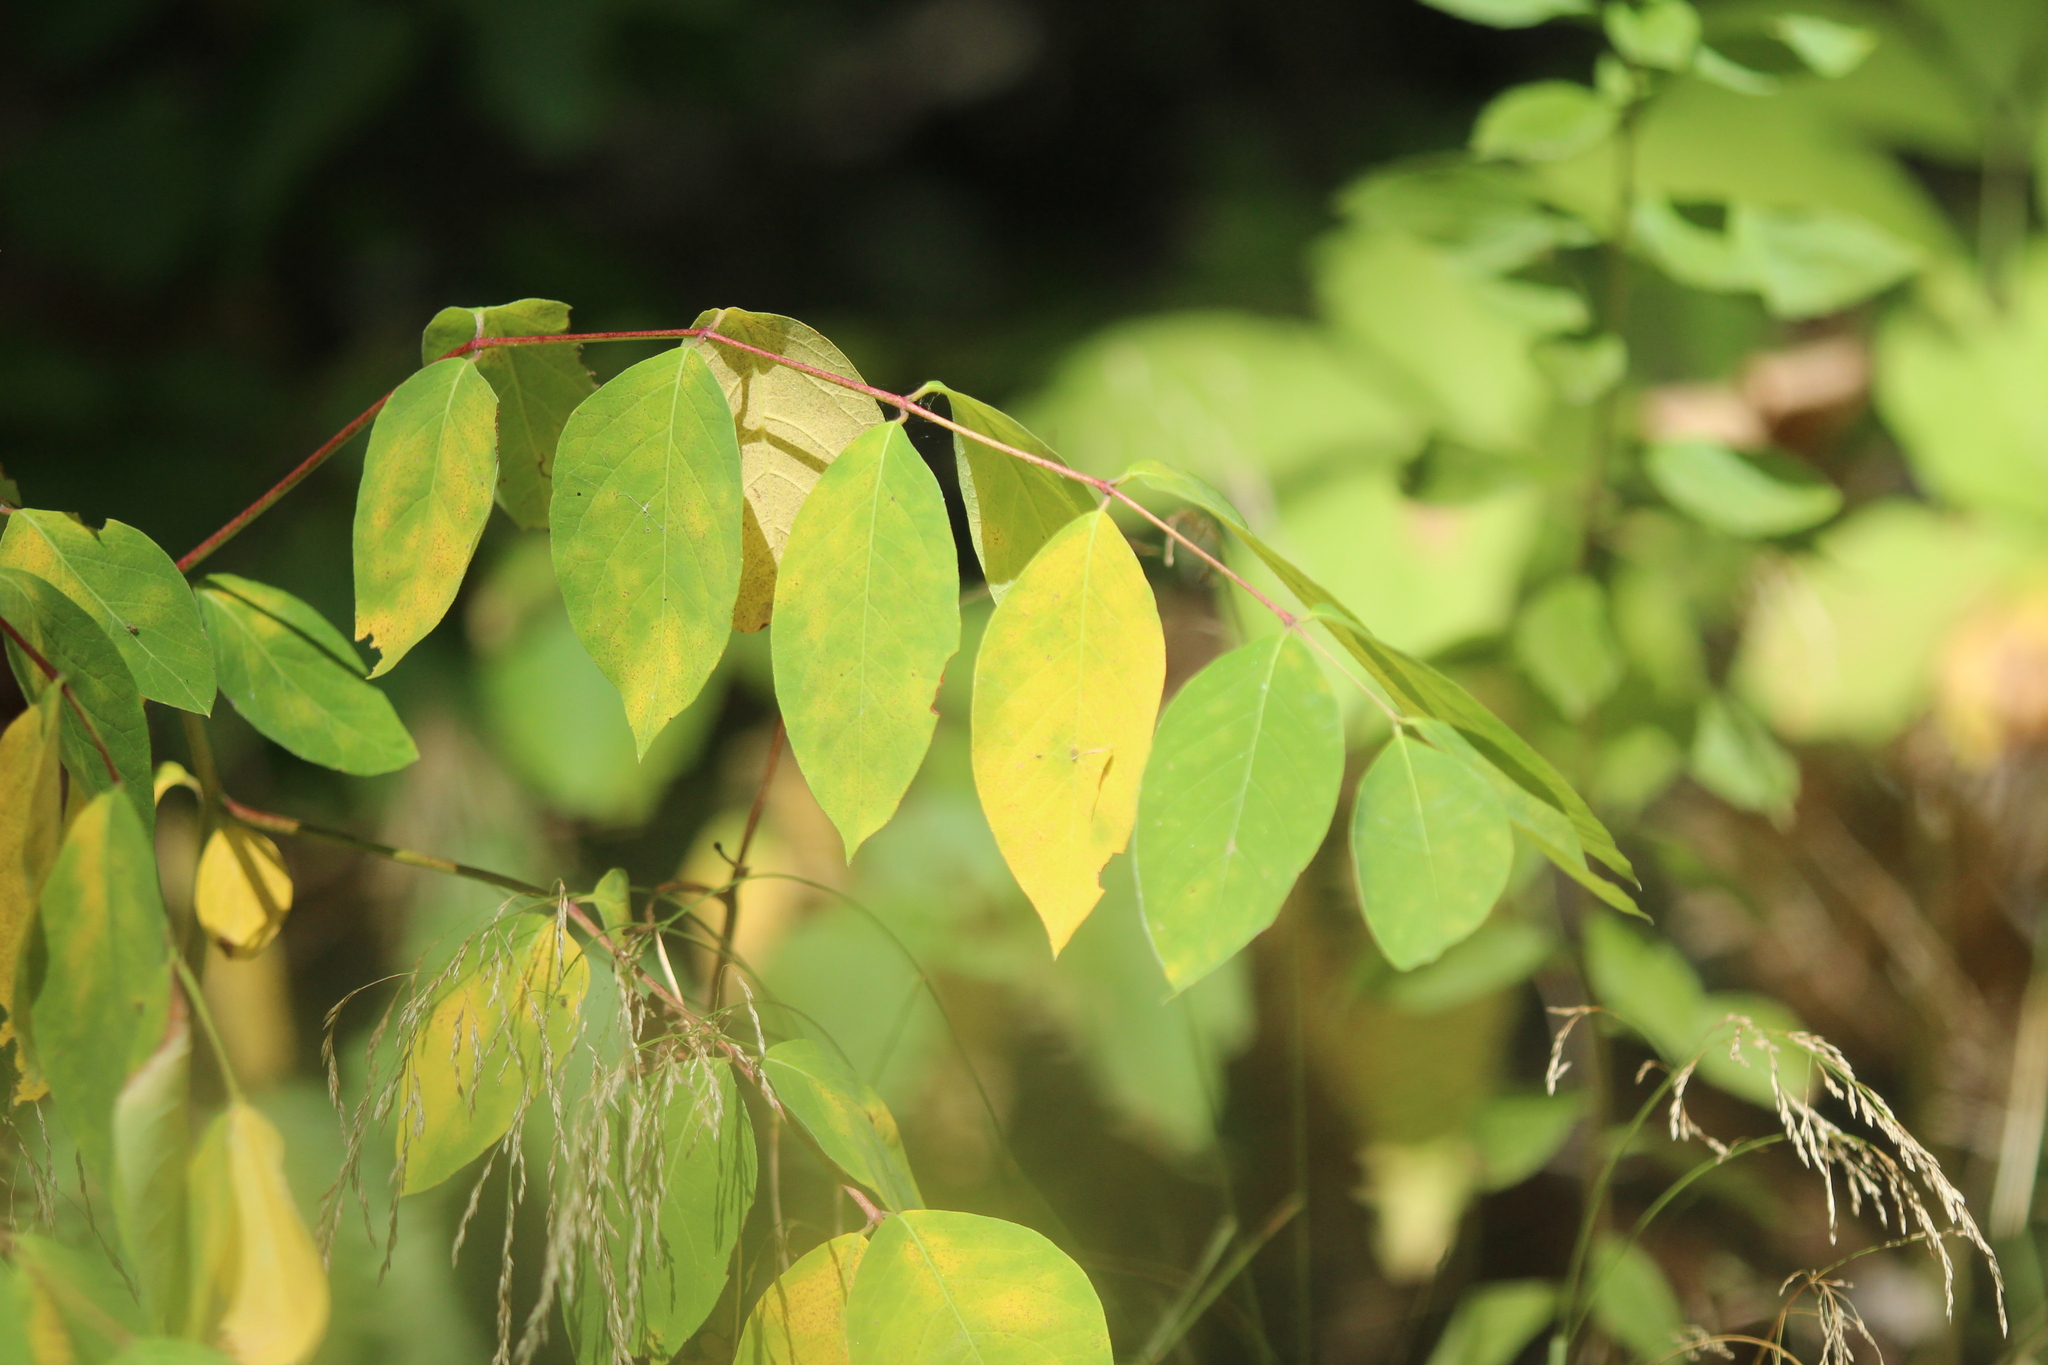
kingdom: Plantae
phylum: Tracheophyta
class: Magnoliopsida
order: Gentianales
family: Apocynaceae
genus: Apocynum
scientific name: Apocynum androsaemifolium
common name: Spreading dogbane
